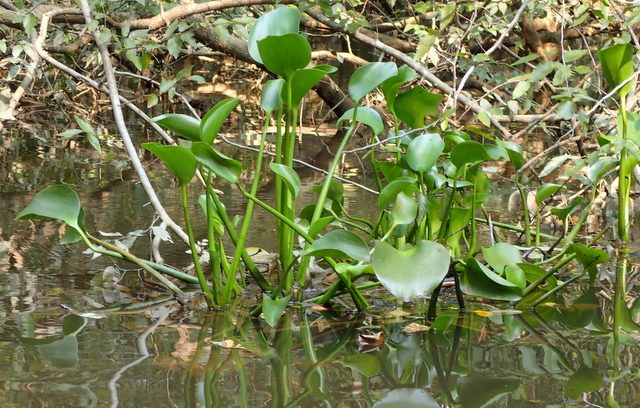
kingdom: Plantae
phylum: Tracheophyta
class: Liliopsida
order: Commelinales
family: Pontederiaceae
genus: Pontederia
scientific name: Pontederia crassipes
